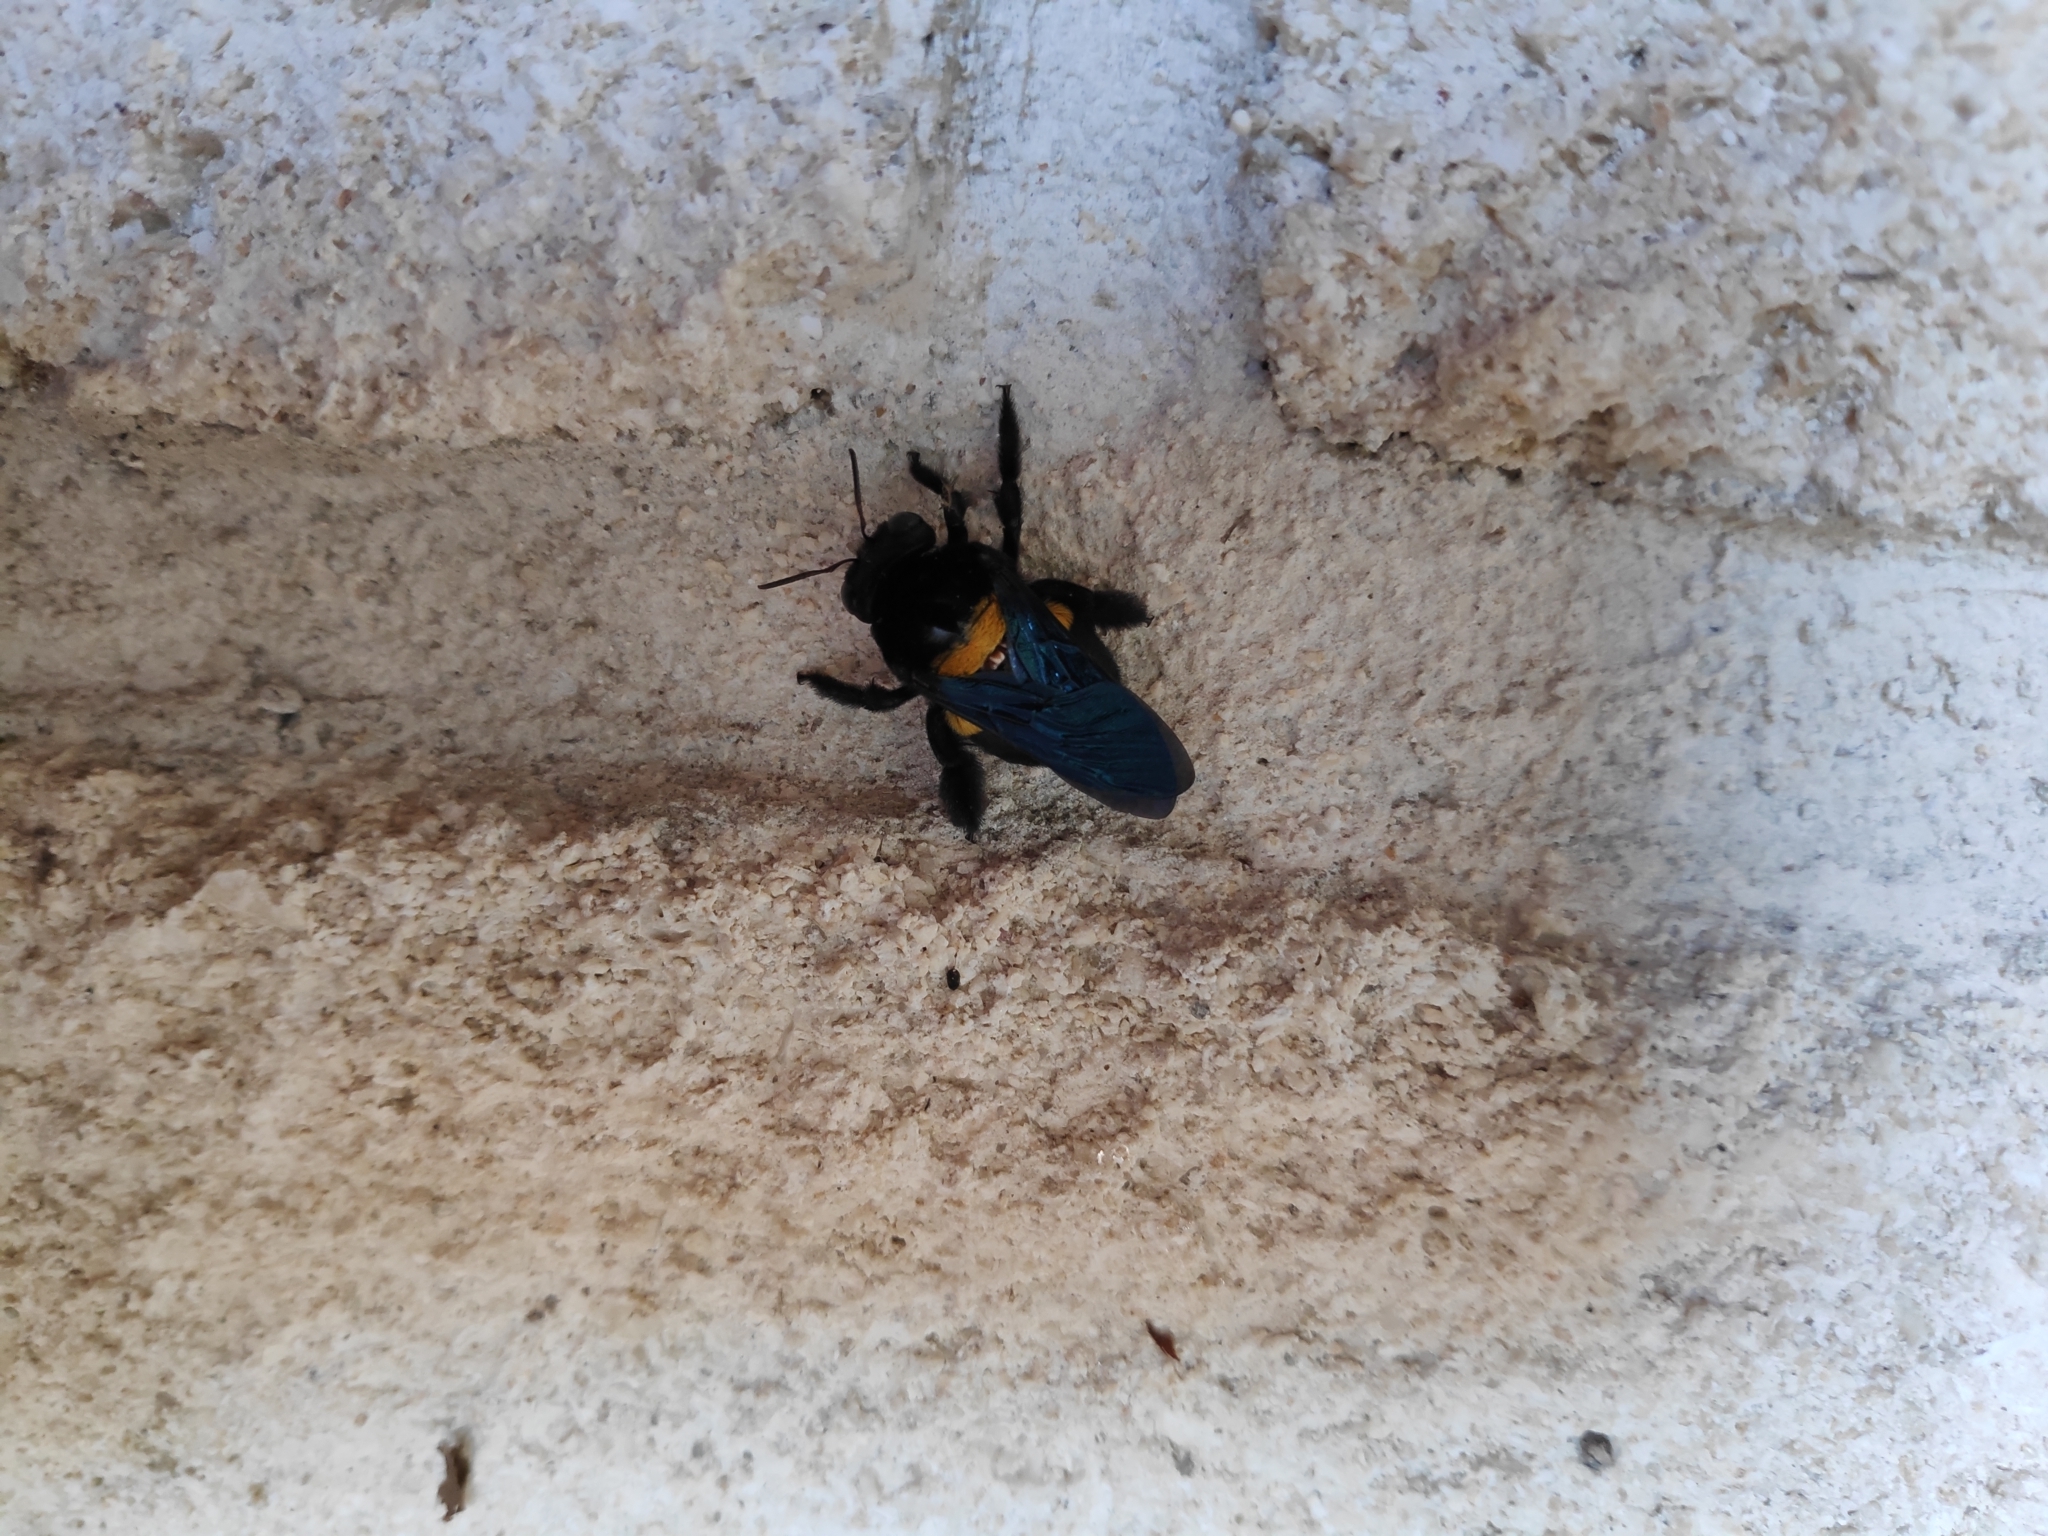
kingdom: Animalia
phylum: Arthropoda
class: Insecta
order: Hymenoptera
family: Apidae
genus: Xylocopa
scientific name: Xylocopa caffra
